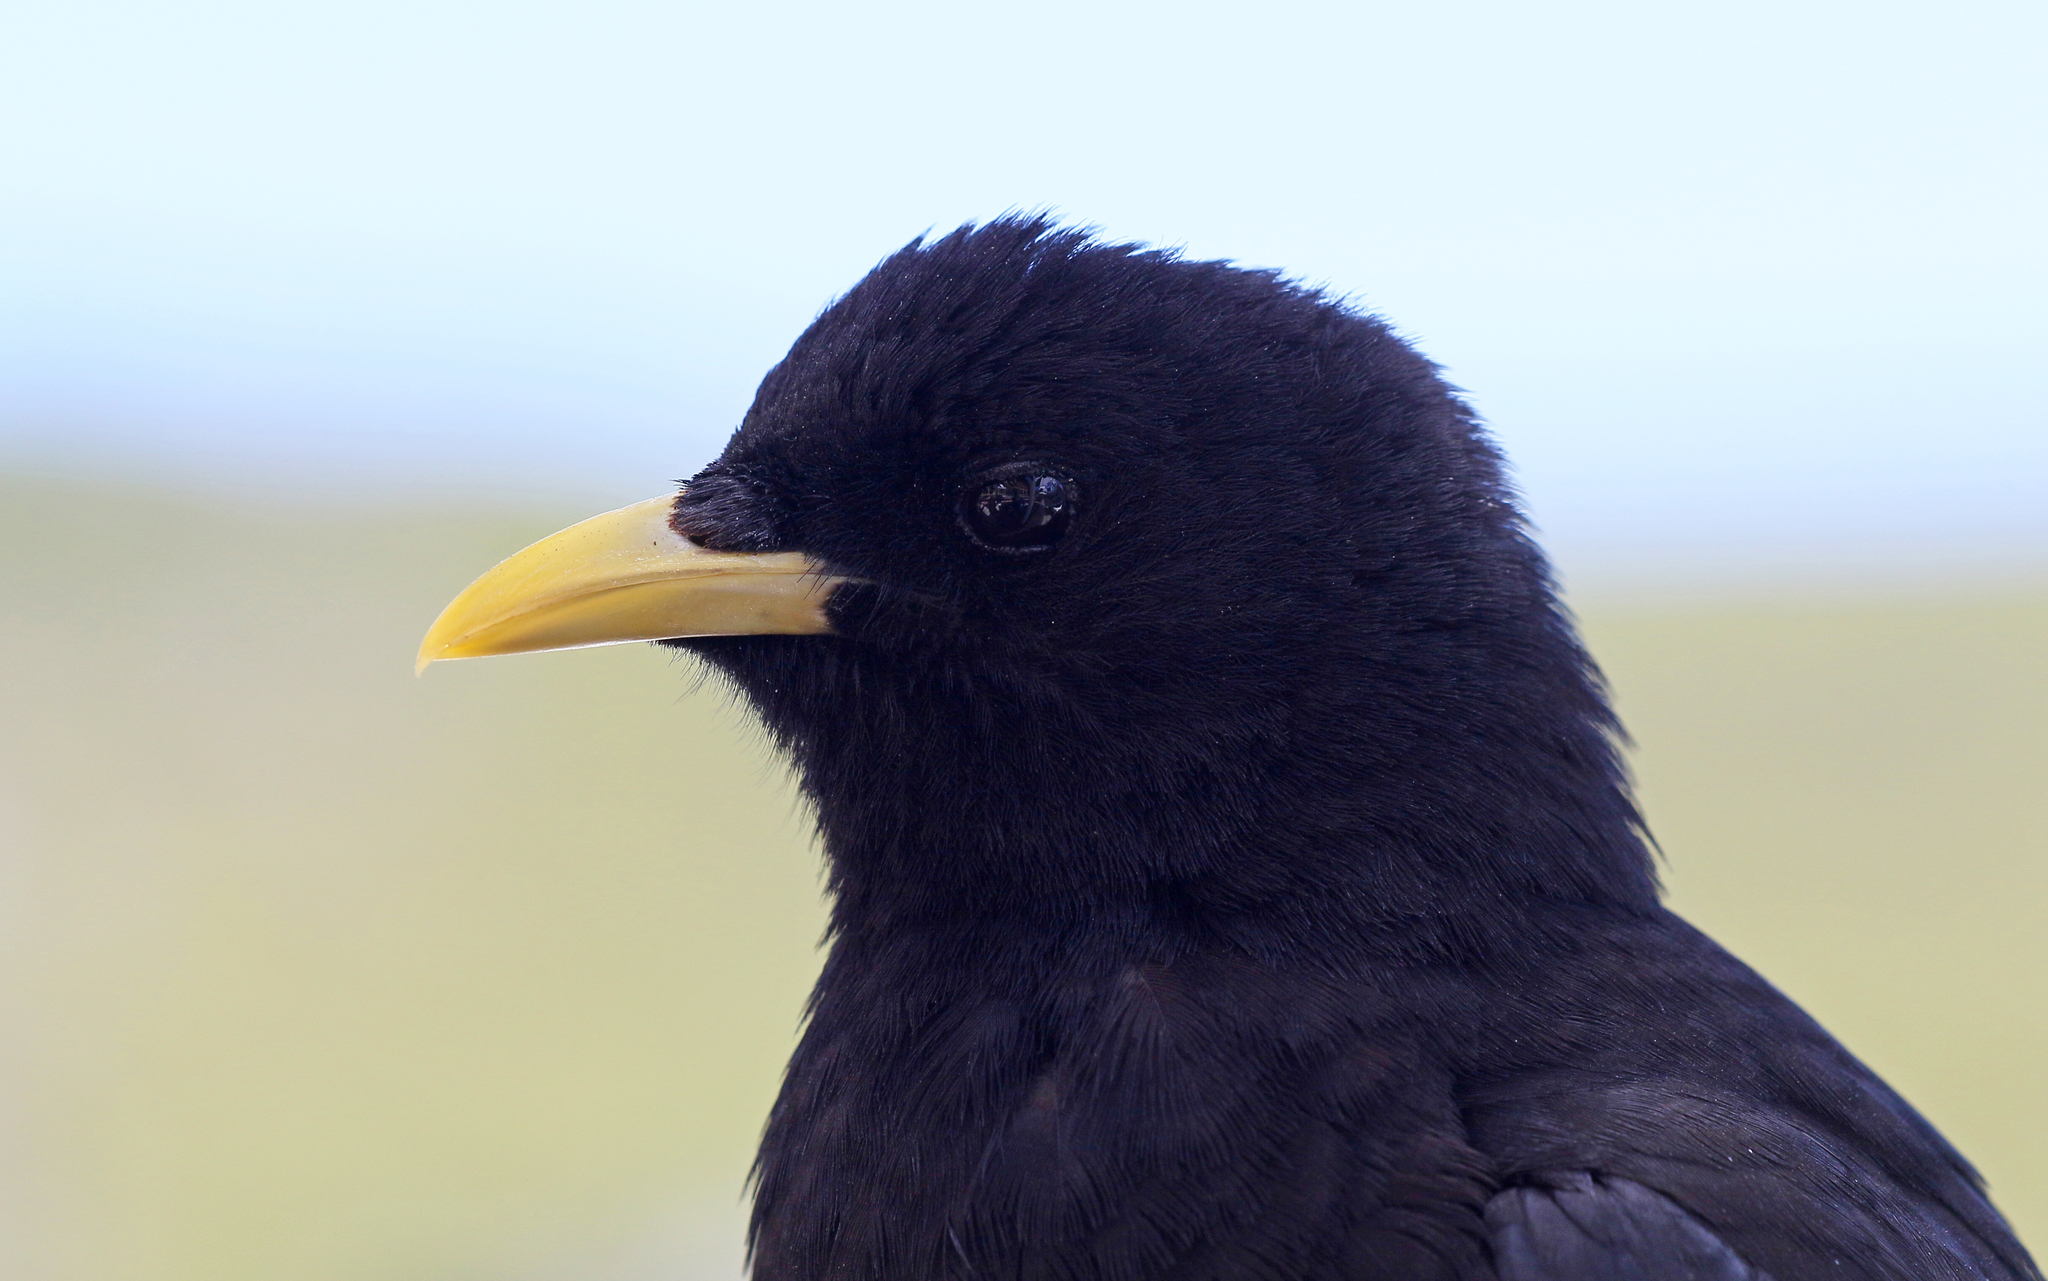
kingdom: Animalia
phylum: Chordata
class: Aves
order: Passeriformes
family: Corvidae
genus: Pyrrhocorax
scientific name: Pyrrhocorax graculus
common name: Alpine chough
